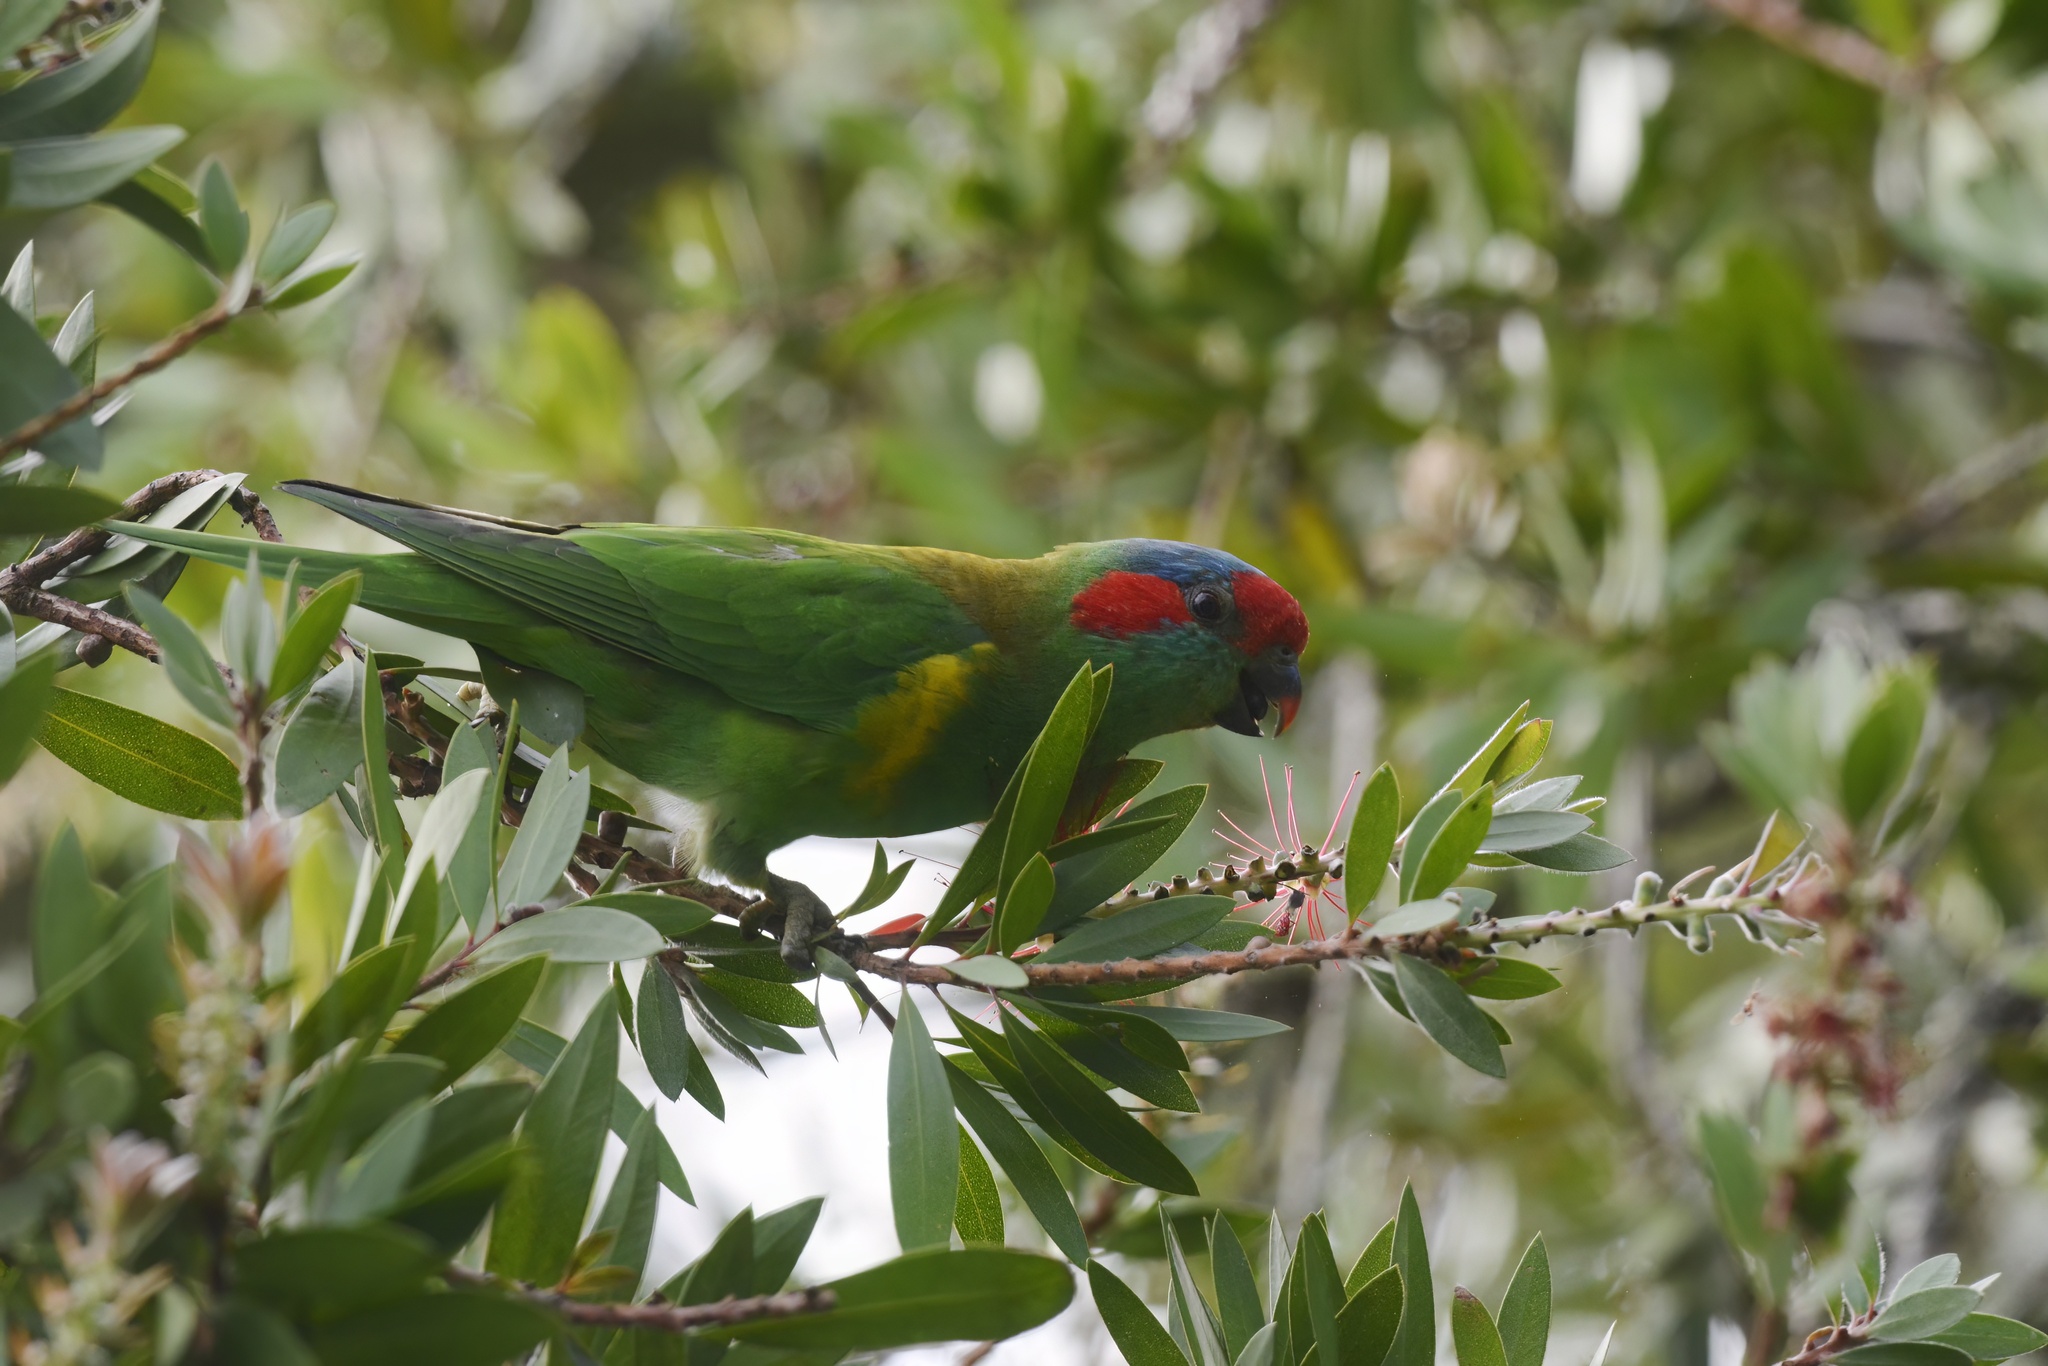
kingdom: Animalia
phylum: Chordata
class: Aves
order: Psittaciformes
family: Psittacidae
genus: Glossopsitta
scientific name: Glossopsitta concinna
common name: Musk lorikeet
